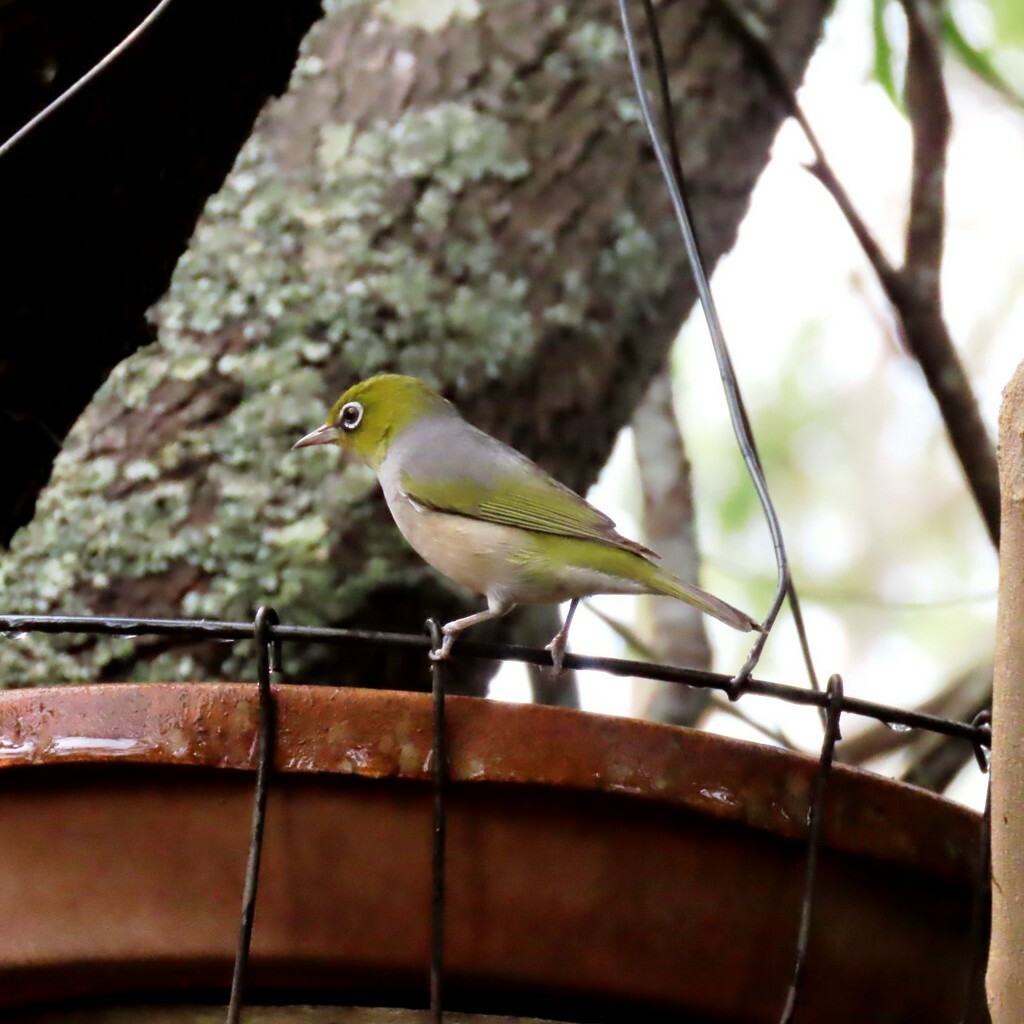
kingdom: Animalia
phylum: Chordata
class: Aves
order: Passeriformes
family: Zosteropidae
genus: Zosterops
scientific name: Zosterops lateralis
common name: Silvereye
